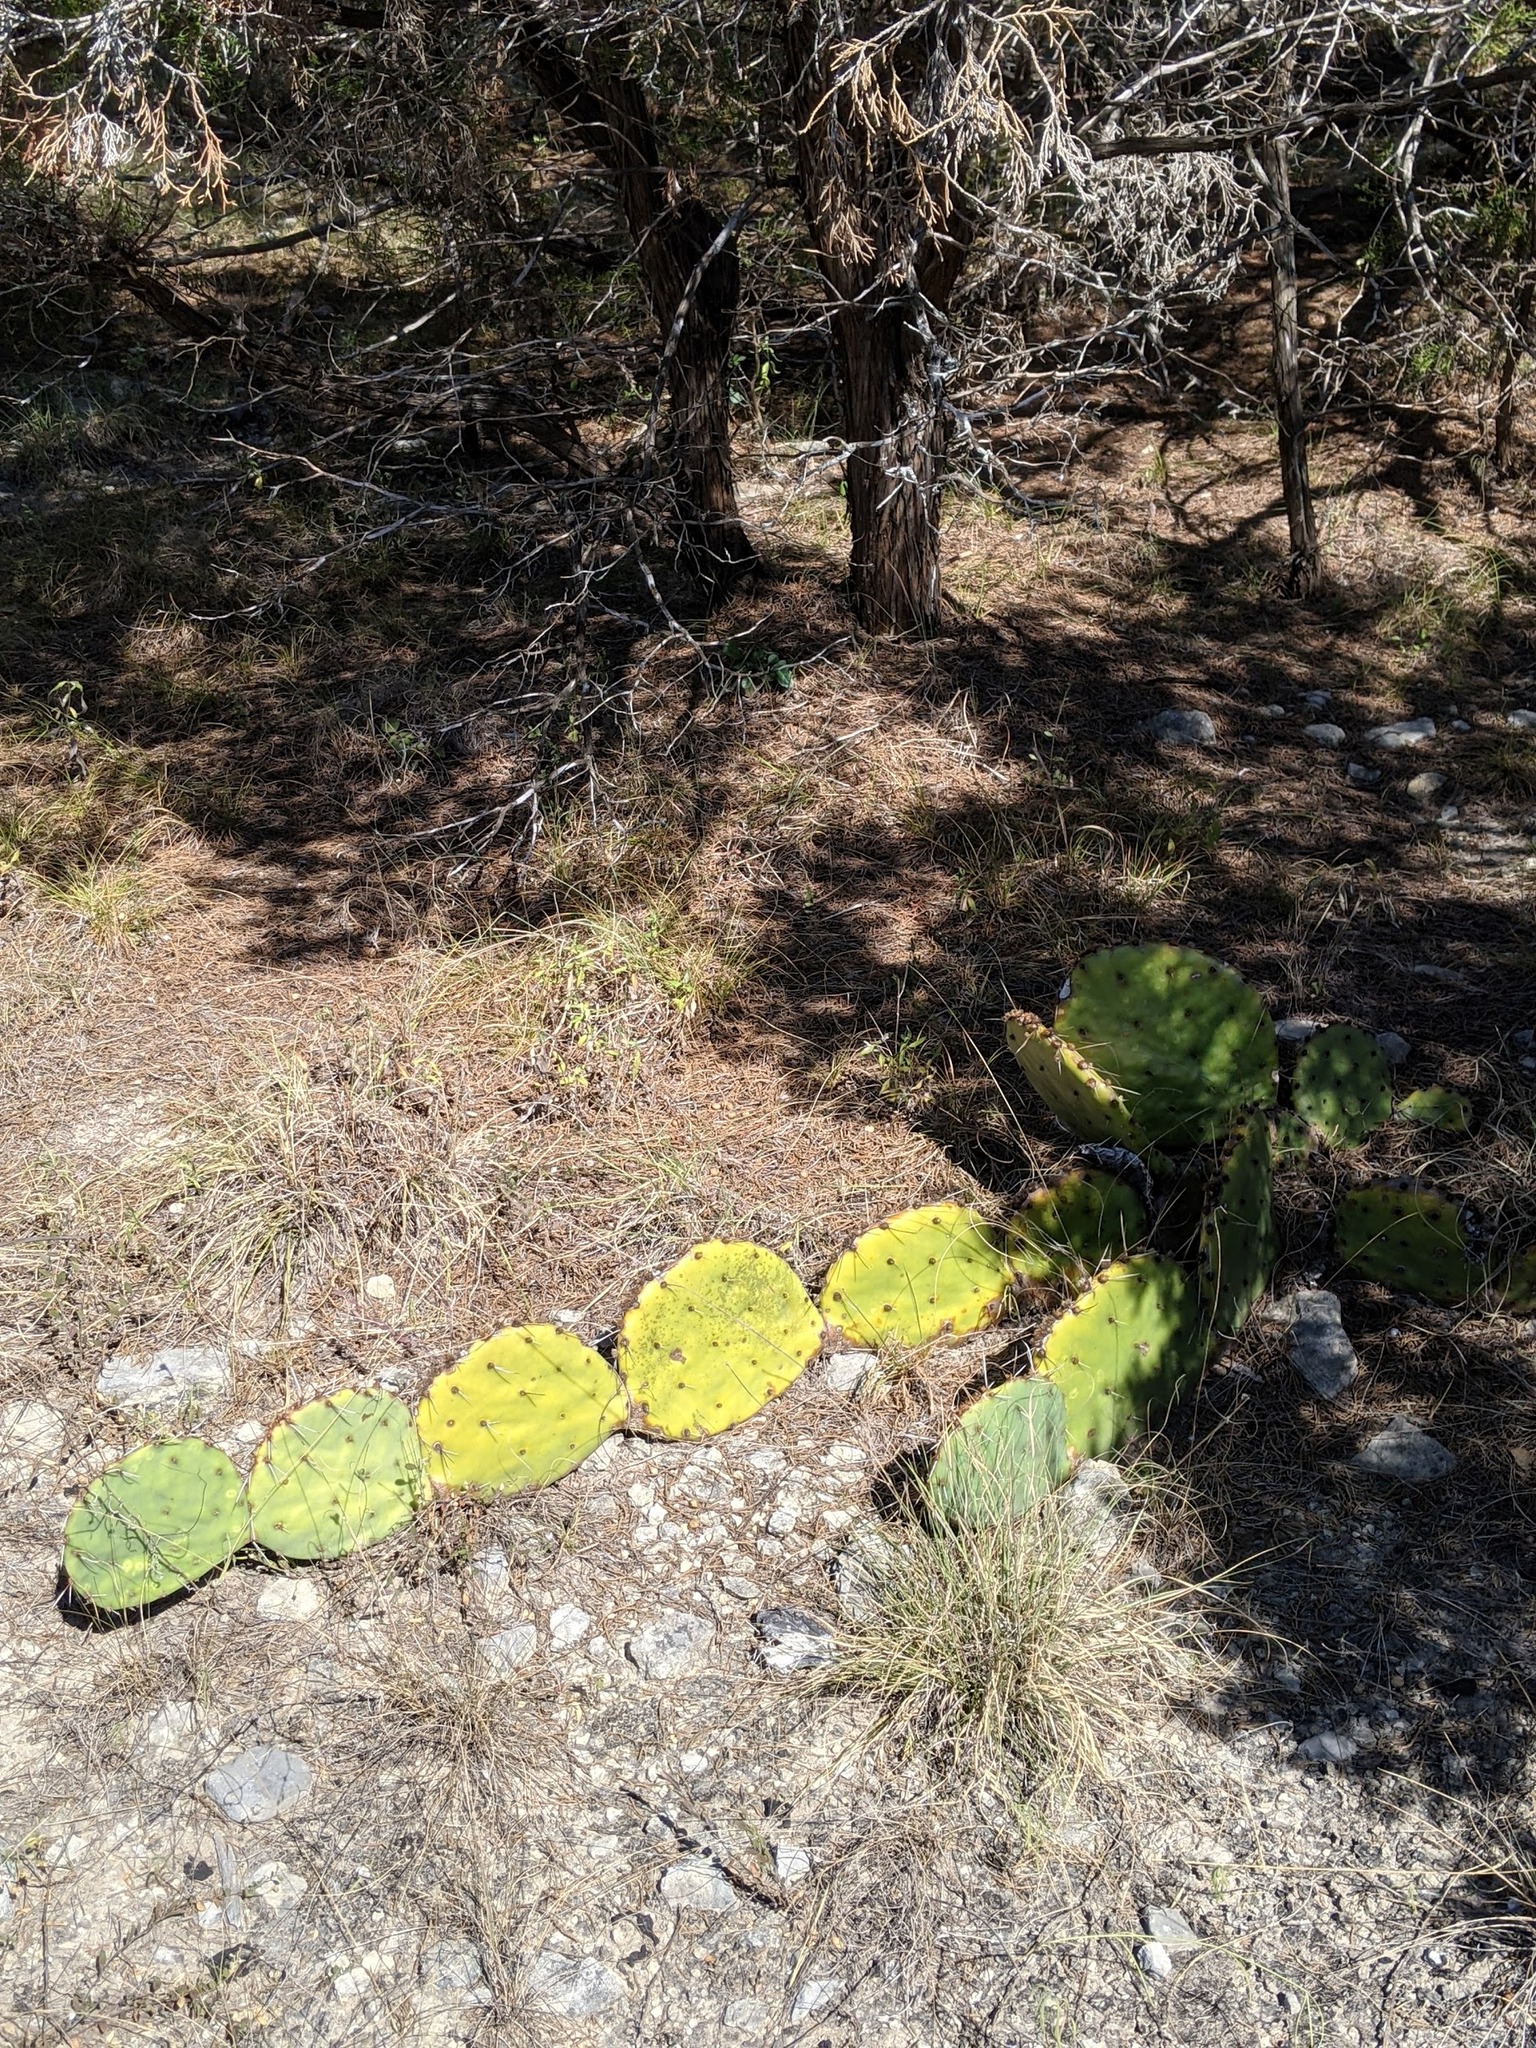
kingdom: Plantae
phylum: Tracheophyta
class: Magnoliopsida
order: Caryophyllales
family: Cactaceae
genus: Opuntia
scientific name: Opuntia phaeacantha
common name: New mexico prickly-pear
